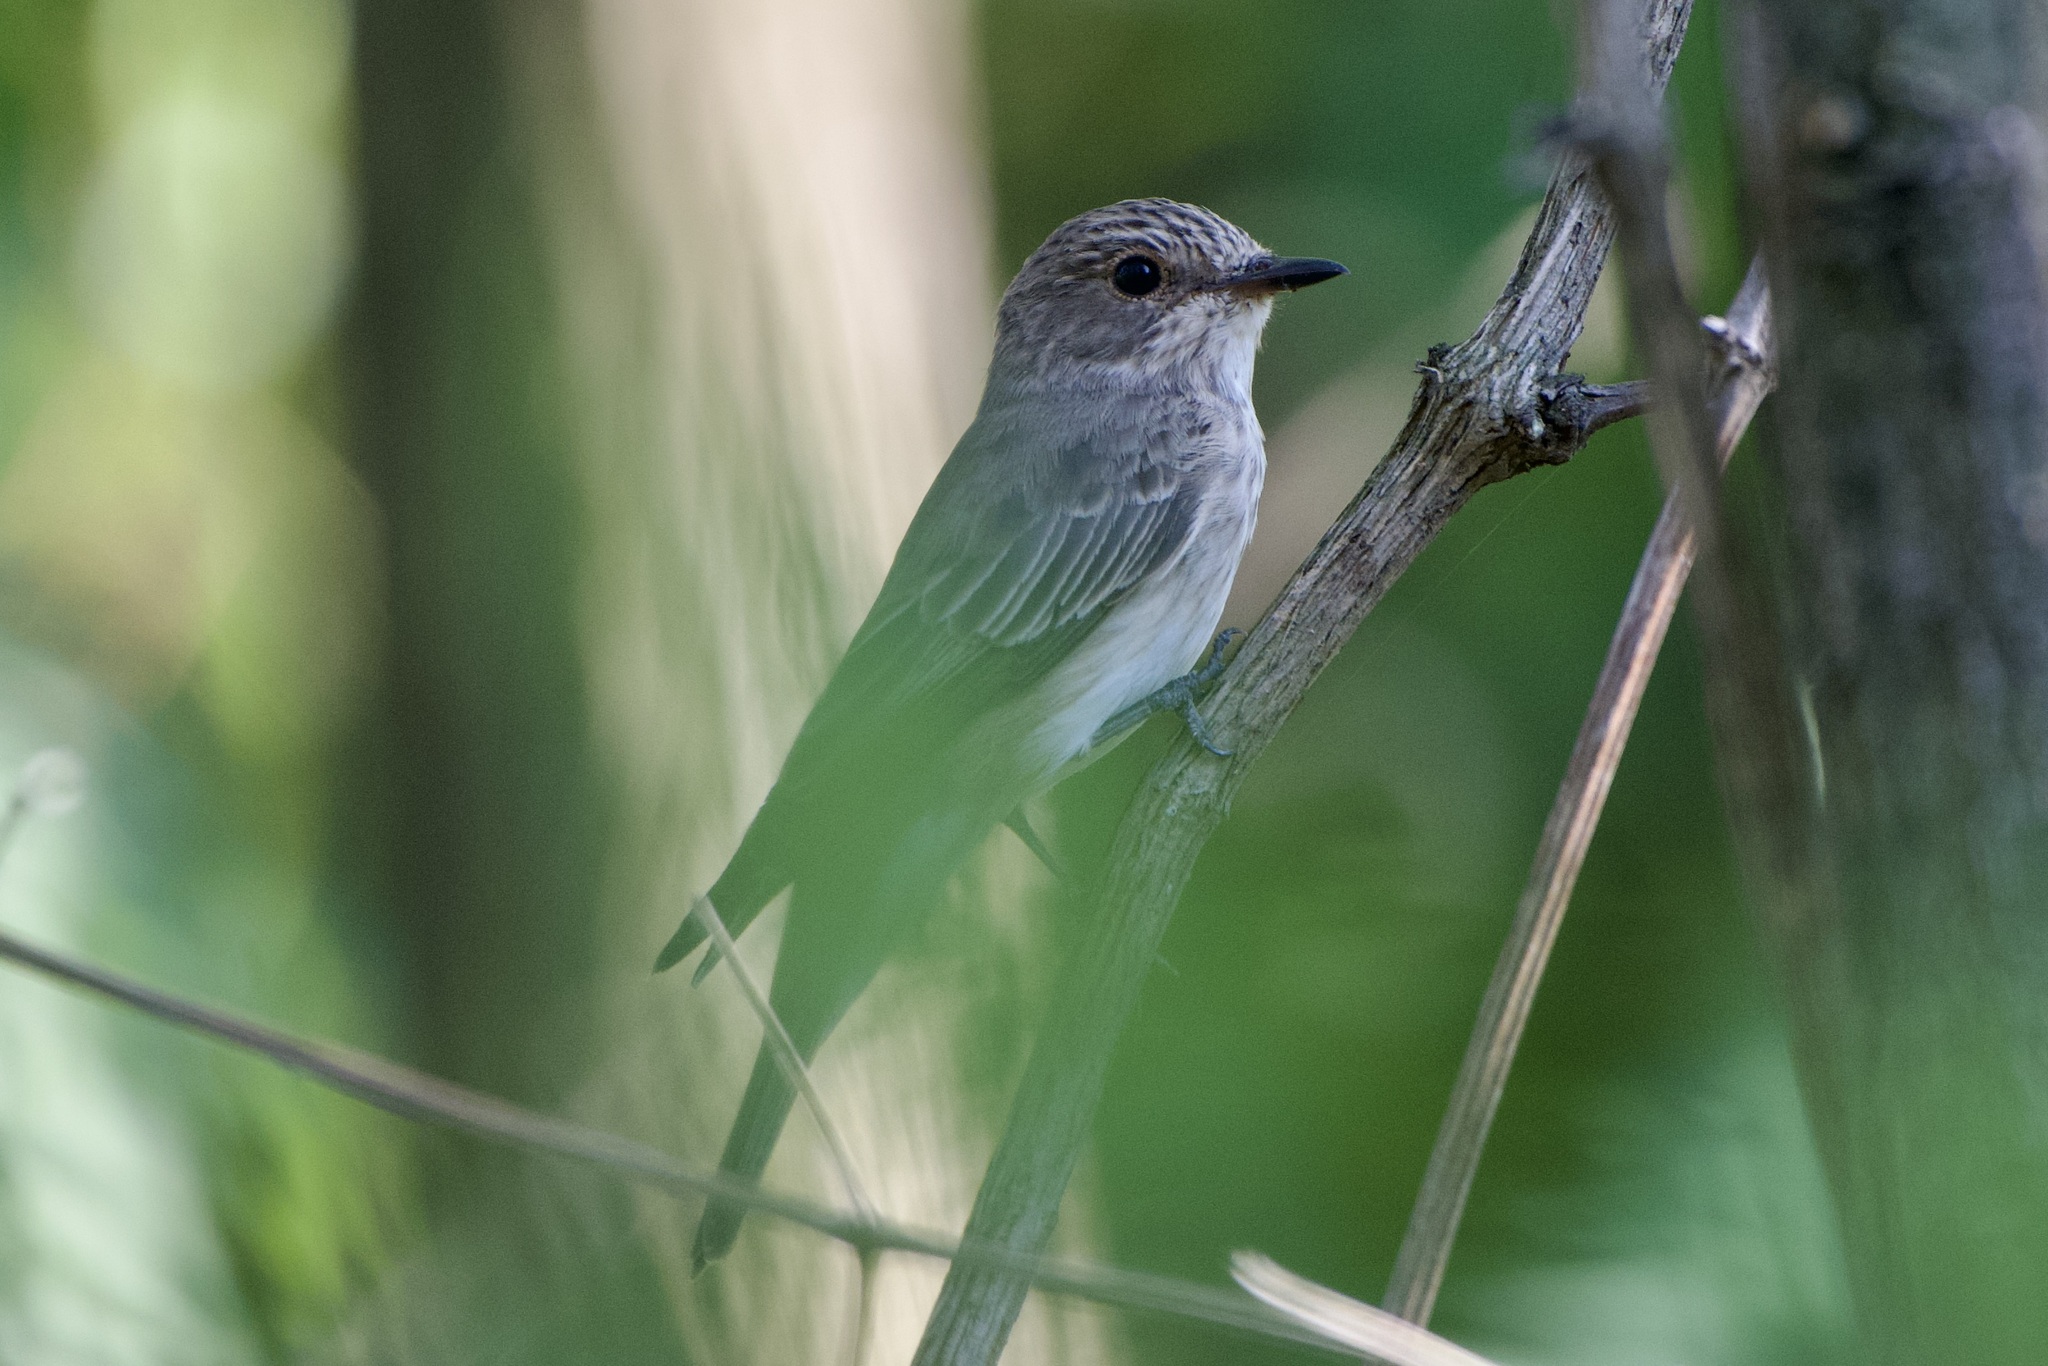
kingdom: Animalia
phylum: Chordata
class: Aves
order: Passeriformes
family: Muscicapidae
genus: Muscicapa
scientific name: Muscicapa striata
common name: Spotted flycatcher
